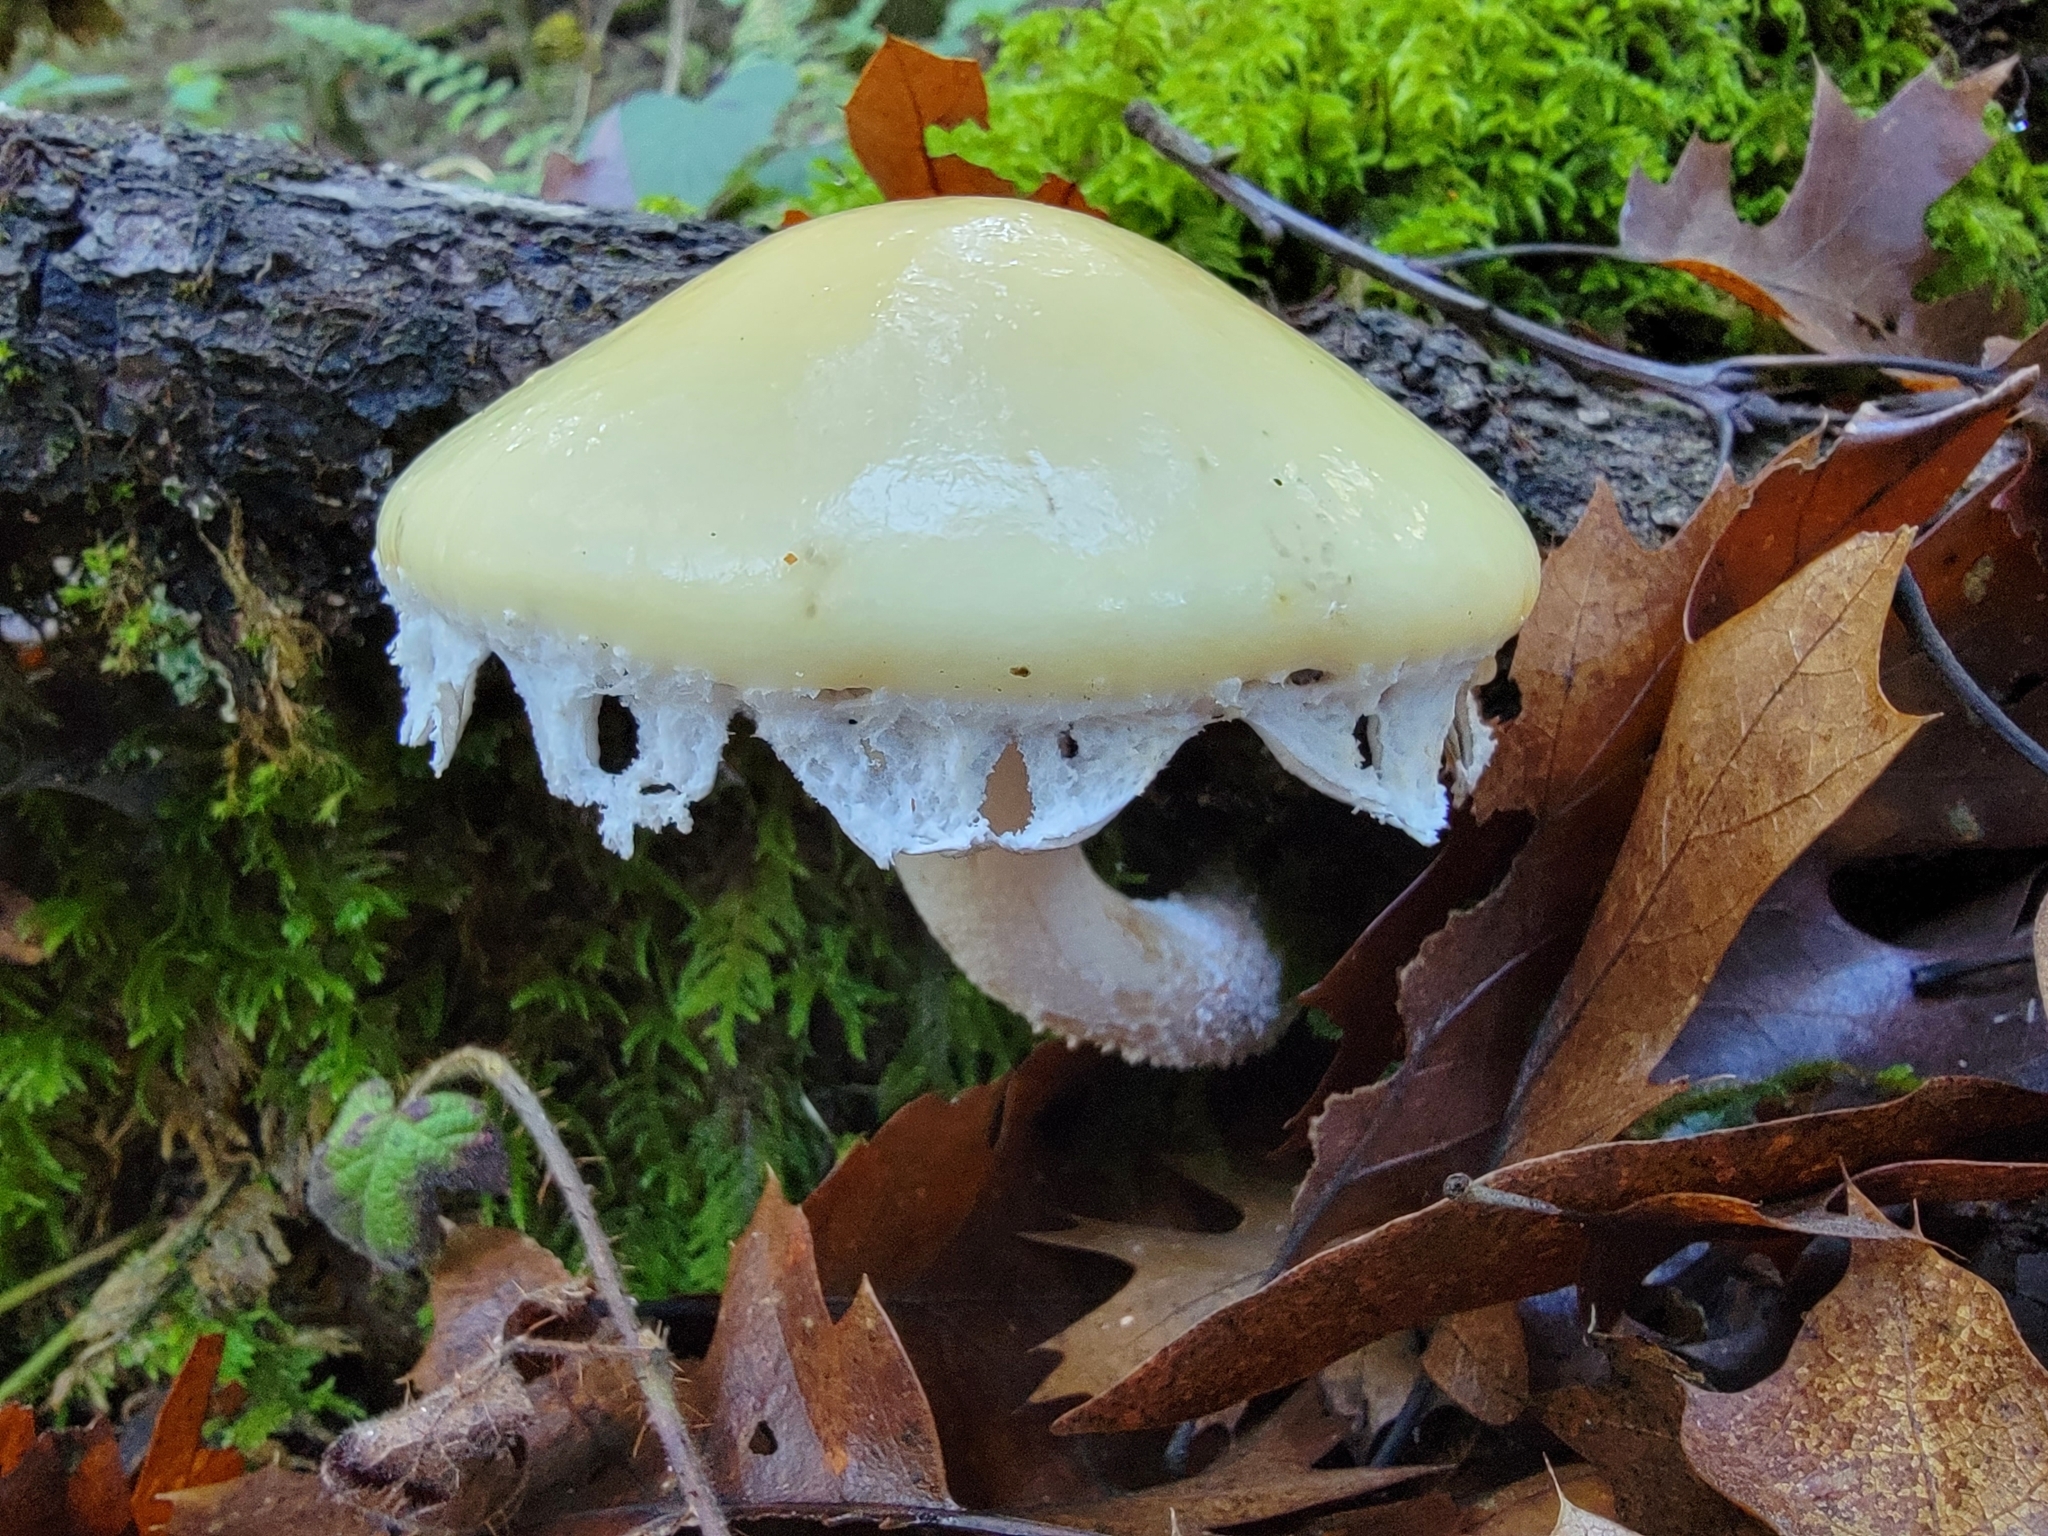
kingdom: Fungi
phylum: Basidiomycota
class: Agaricomycetes
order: Agaricales
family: Strophariaceae
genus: Stropharia
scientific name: Stropharia ambigua
